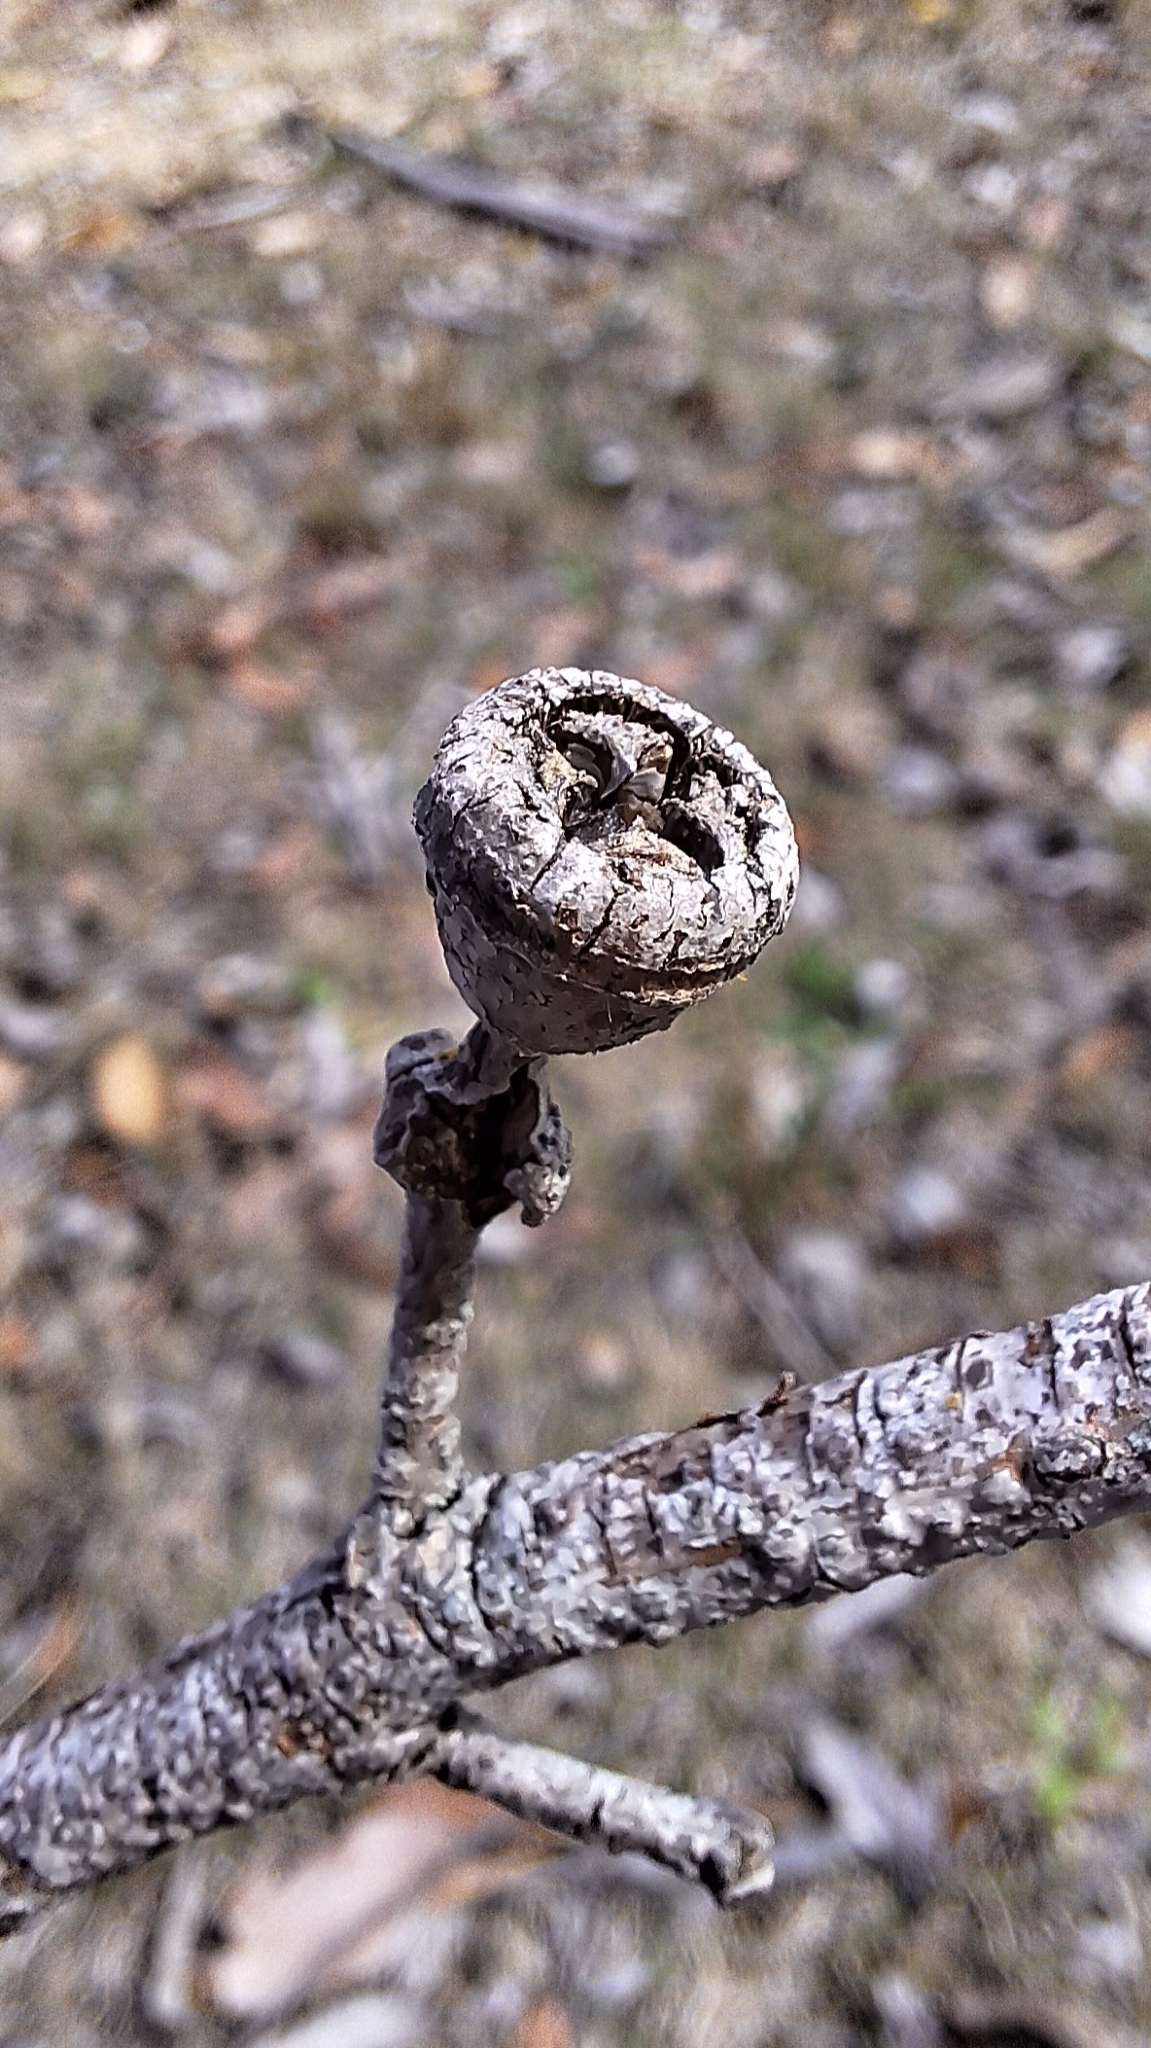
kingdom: Plantae
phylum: Tracheophyta
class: Magnoliopsida
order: Myrtales
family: Myrtaceae
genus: Eucalyptus
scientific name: Eucalyptus diversifolia
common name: Coastal white mallee
